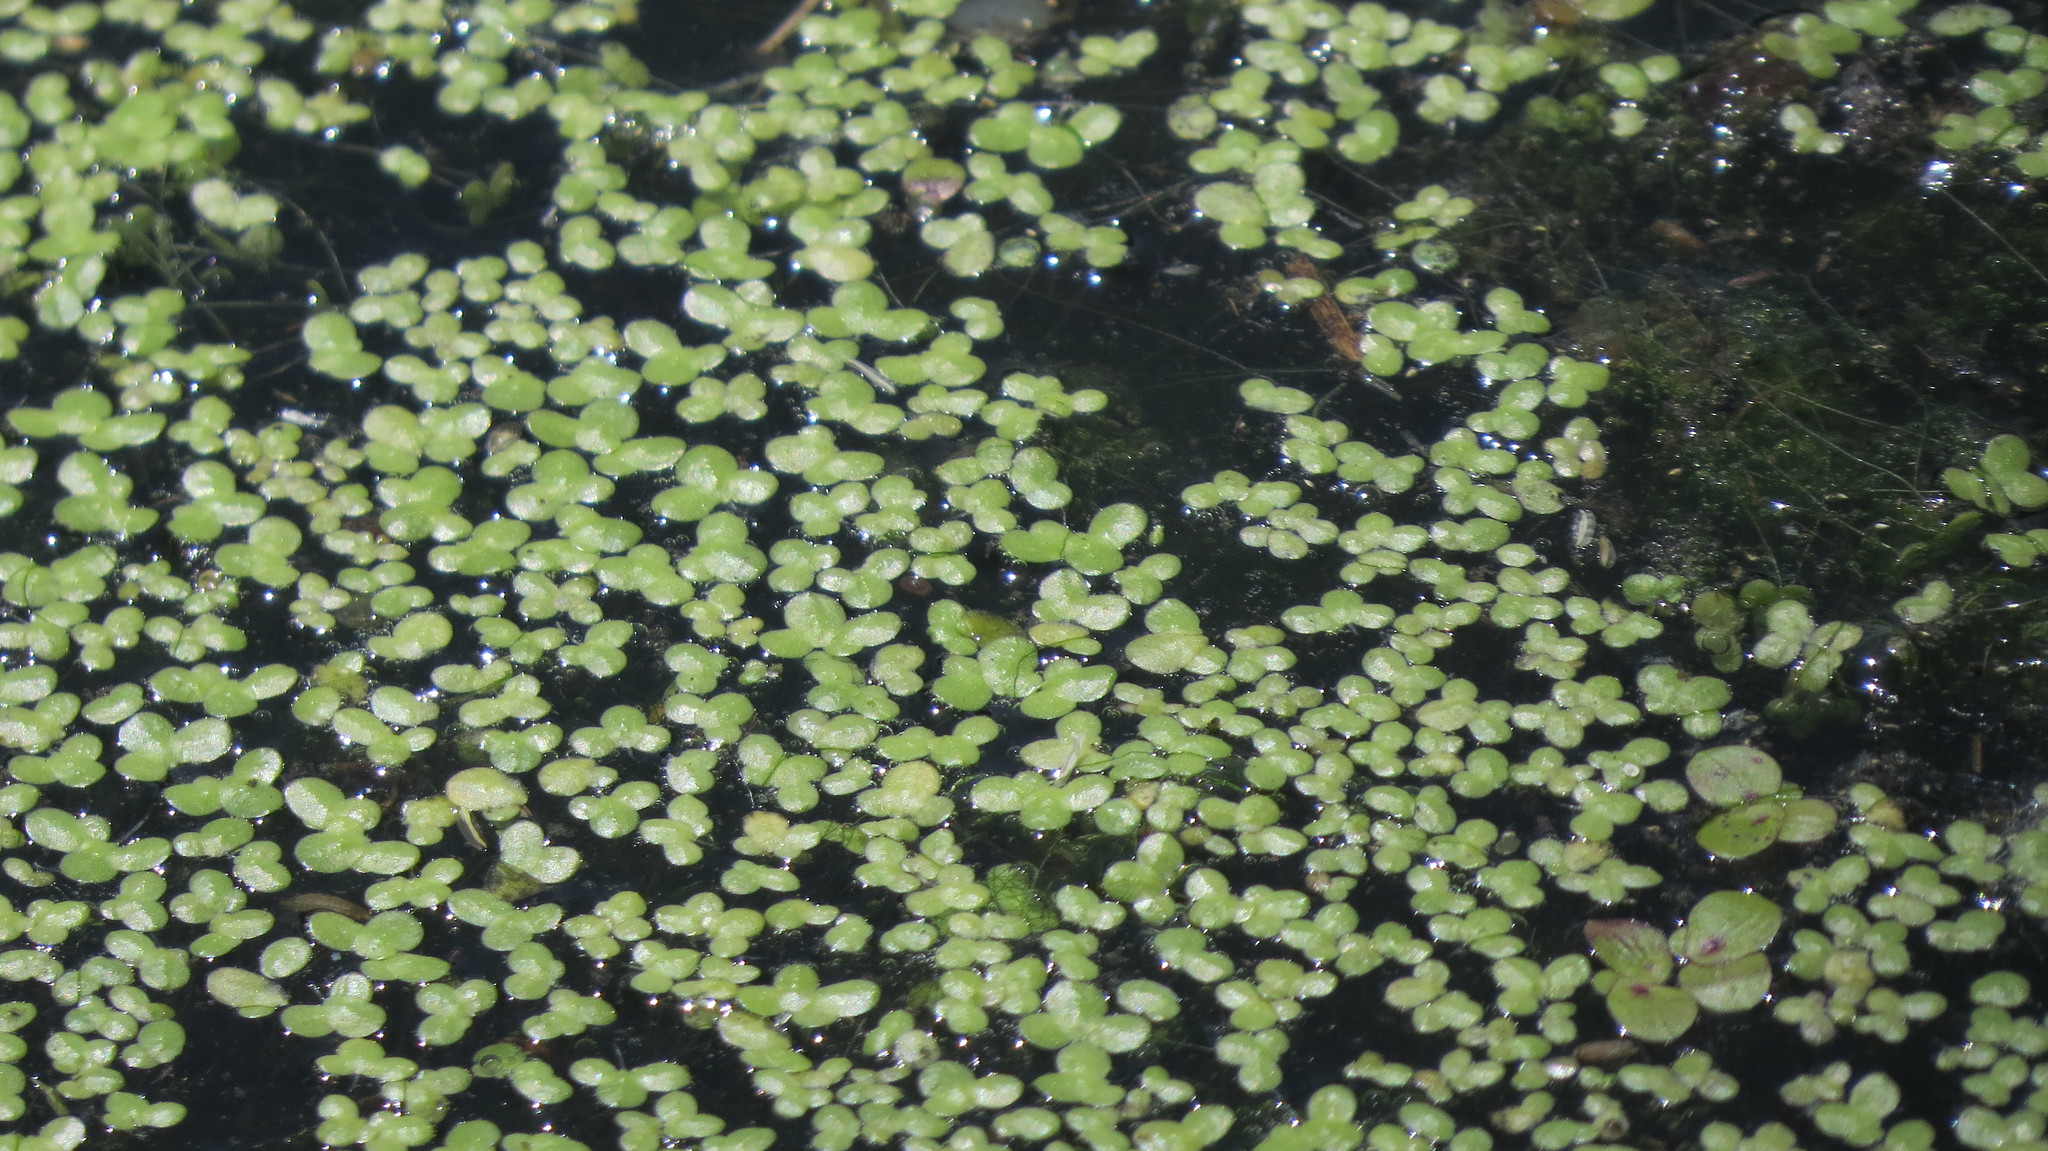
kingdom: Plantae
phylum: Tracheophyta
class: Liliopsida
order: Alismatales
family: Araceae
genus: Lemna
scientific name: Lemna minor
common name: Common duckweed
